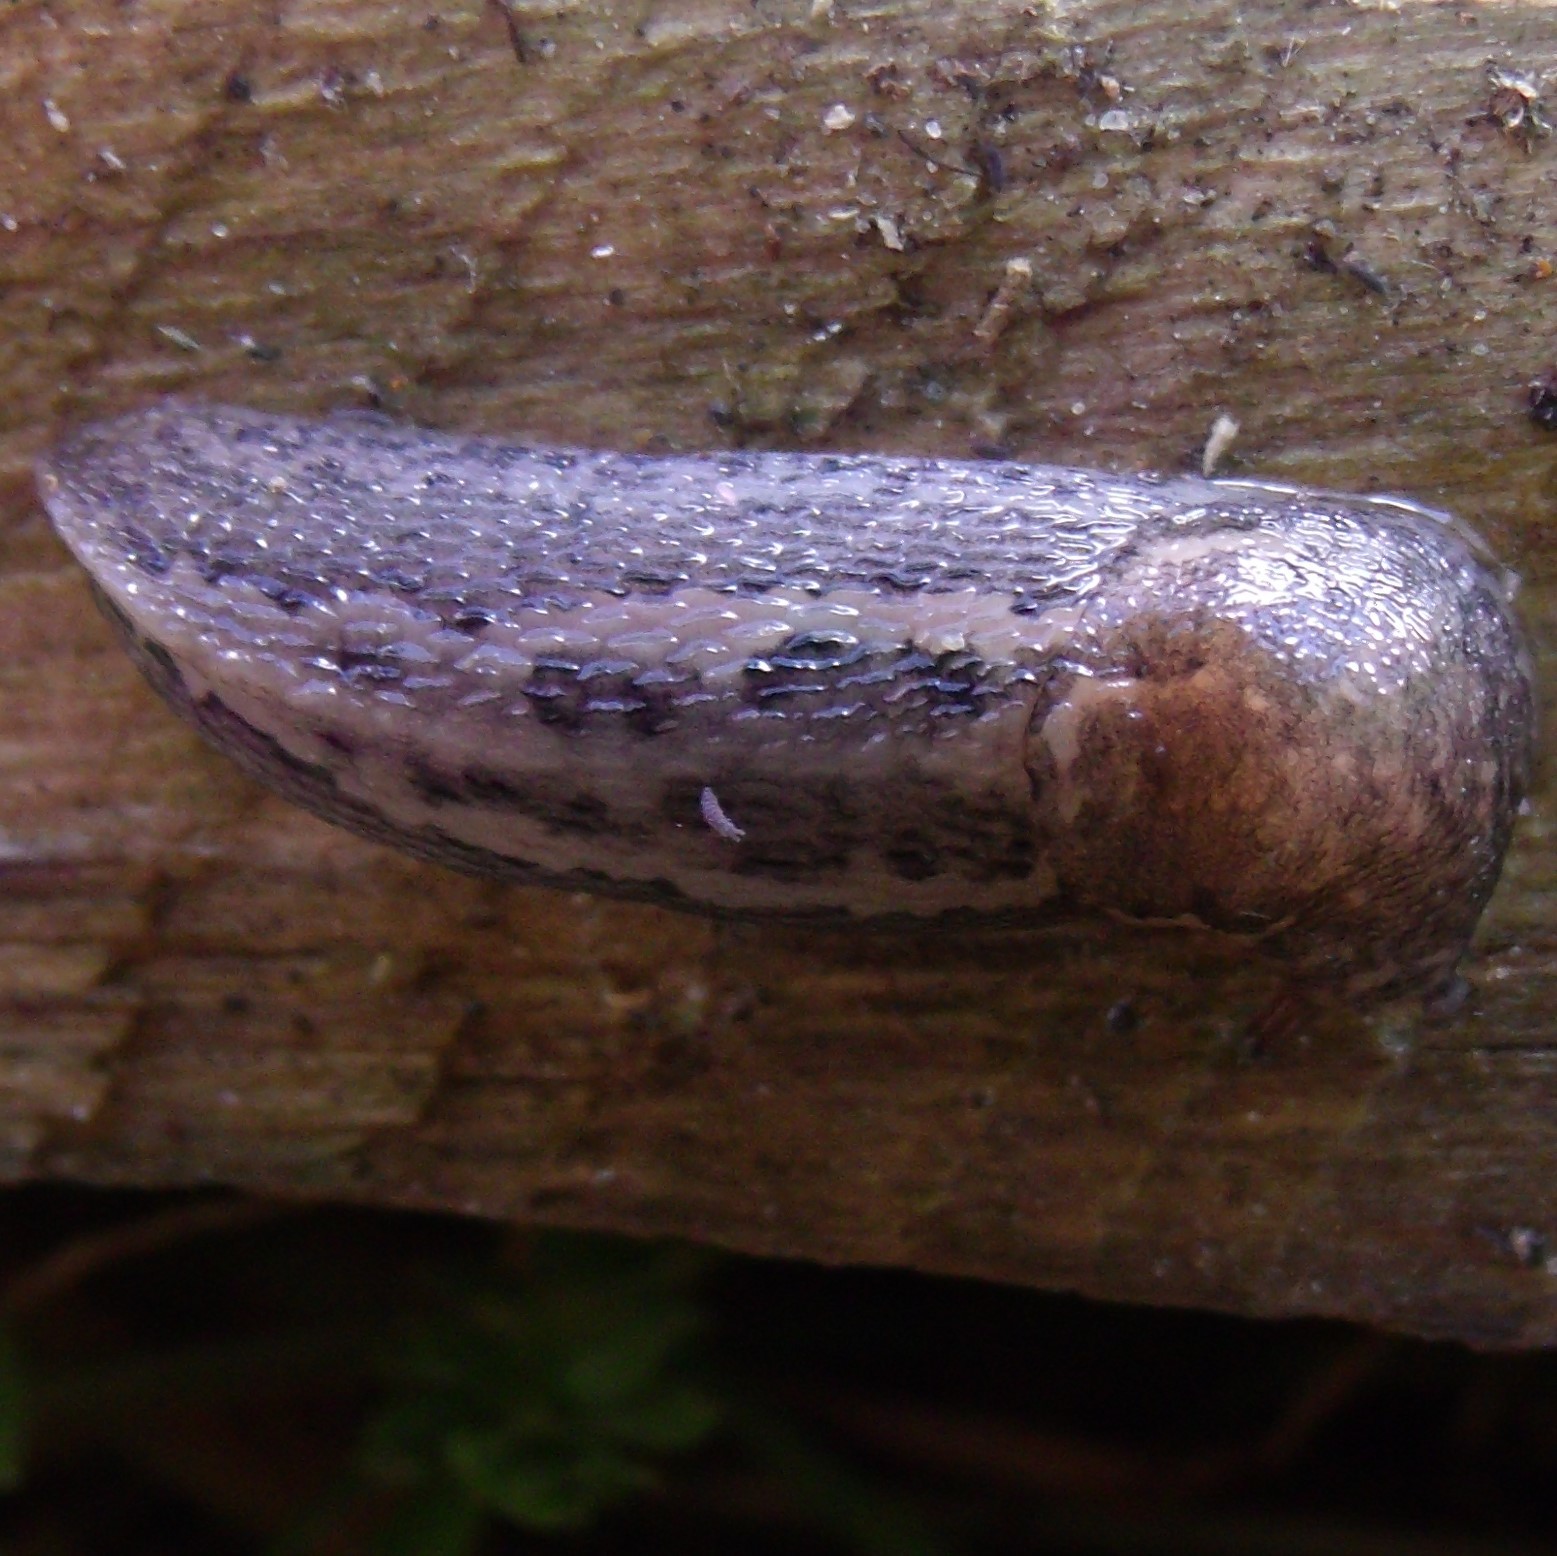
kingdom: Animalia
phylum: Mollusca
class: Gastropoda
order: Stylommatophora
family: Limacidae
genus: Limax
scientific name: Limax maximus
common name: Great grey slug
